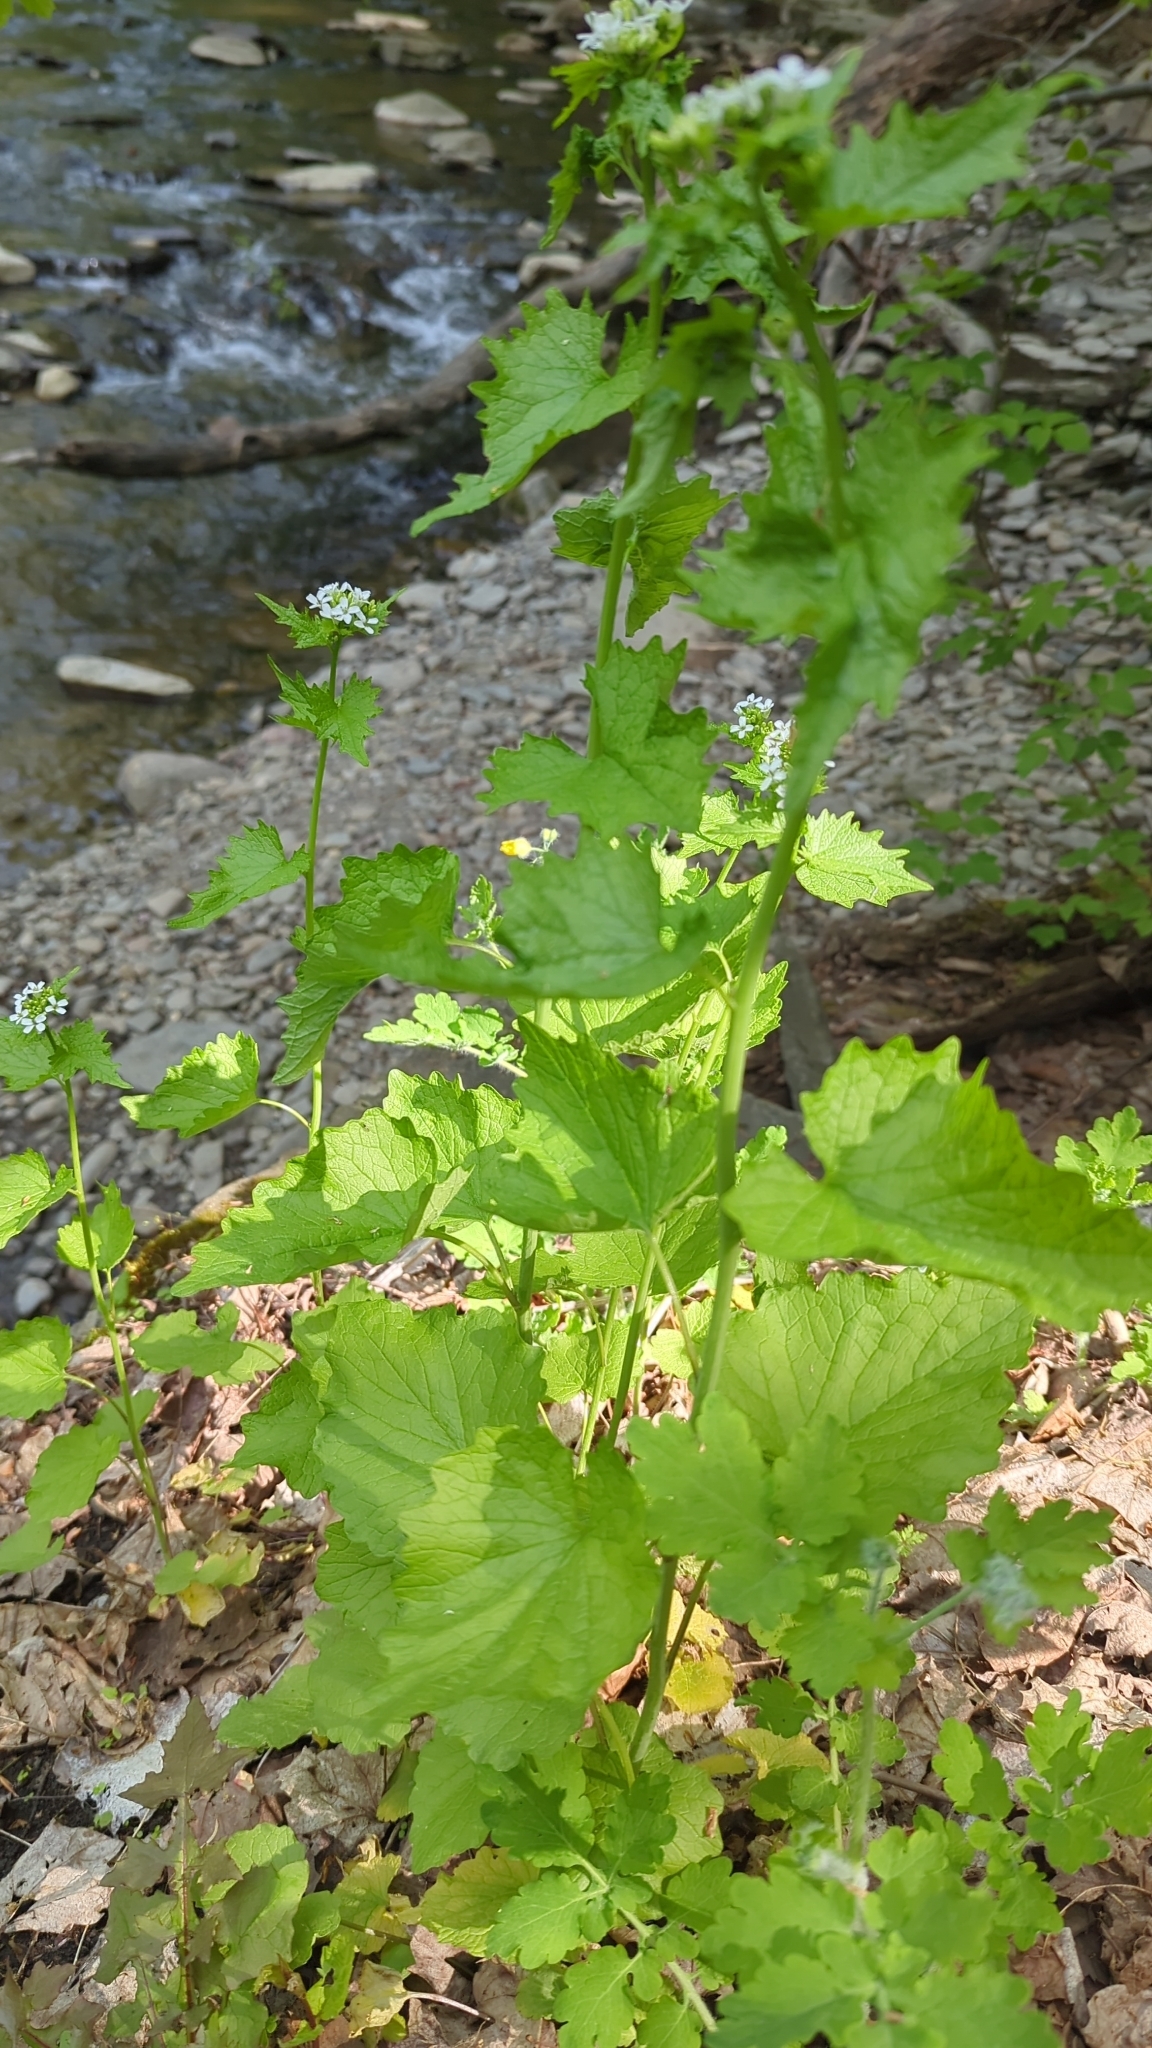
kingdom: Plantae
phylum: Tracheophyta
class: Magnoliopsida
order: Brassicales
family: Brassicaceae
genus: Alliaria
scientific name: Alliaria petiolata
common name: Garlic mustard
